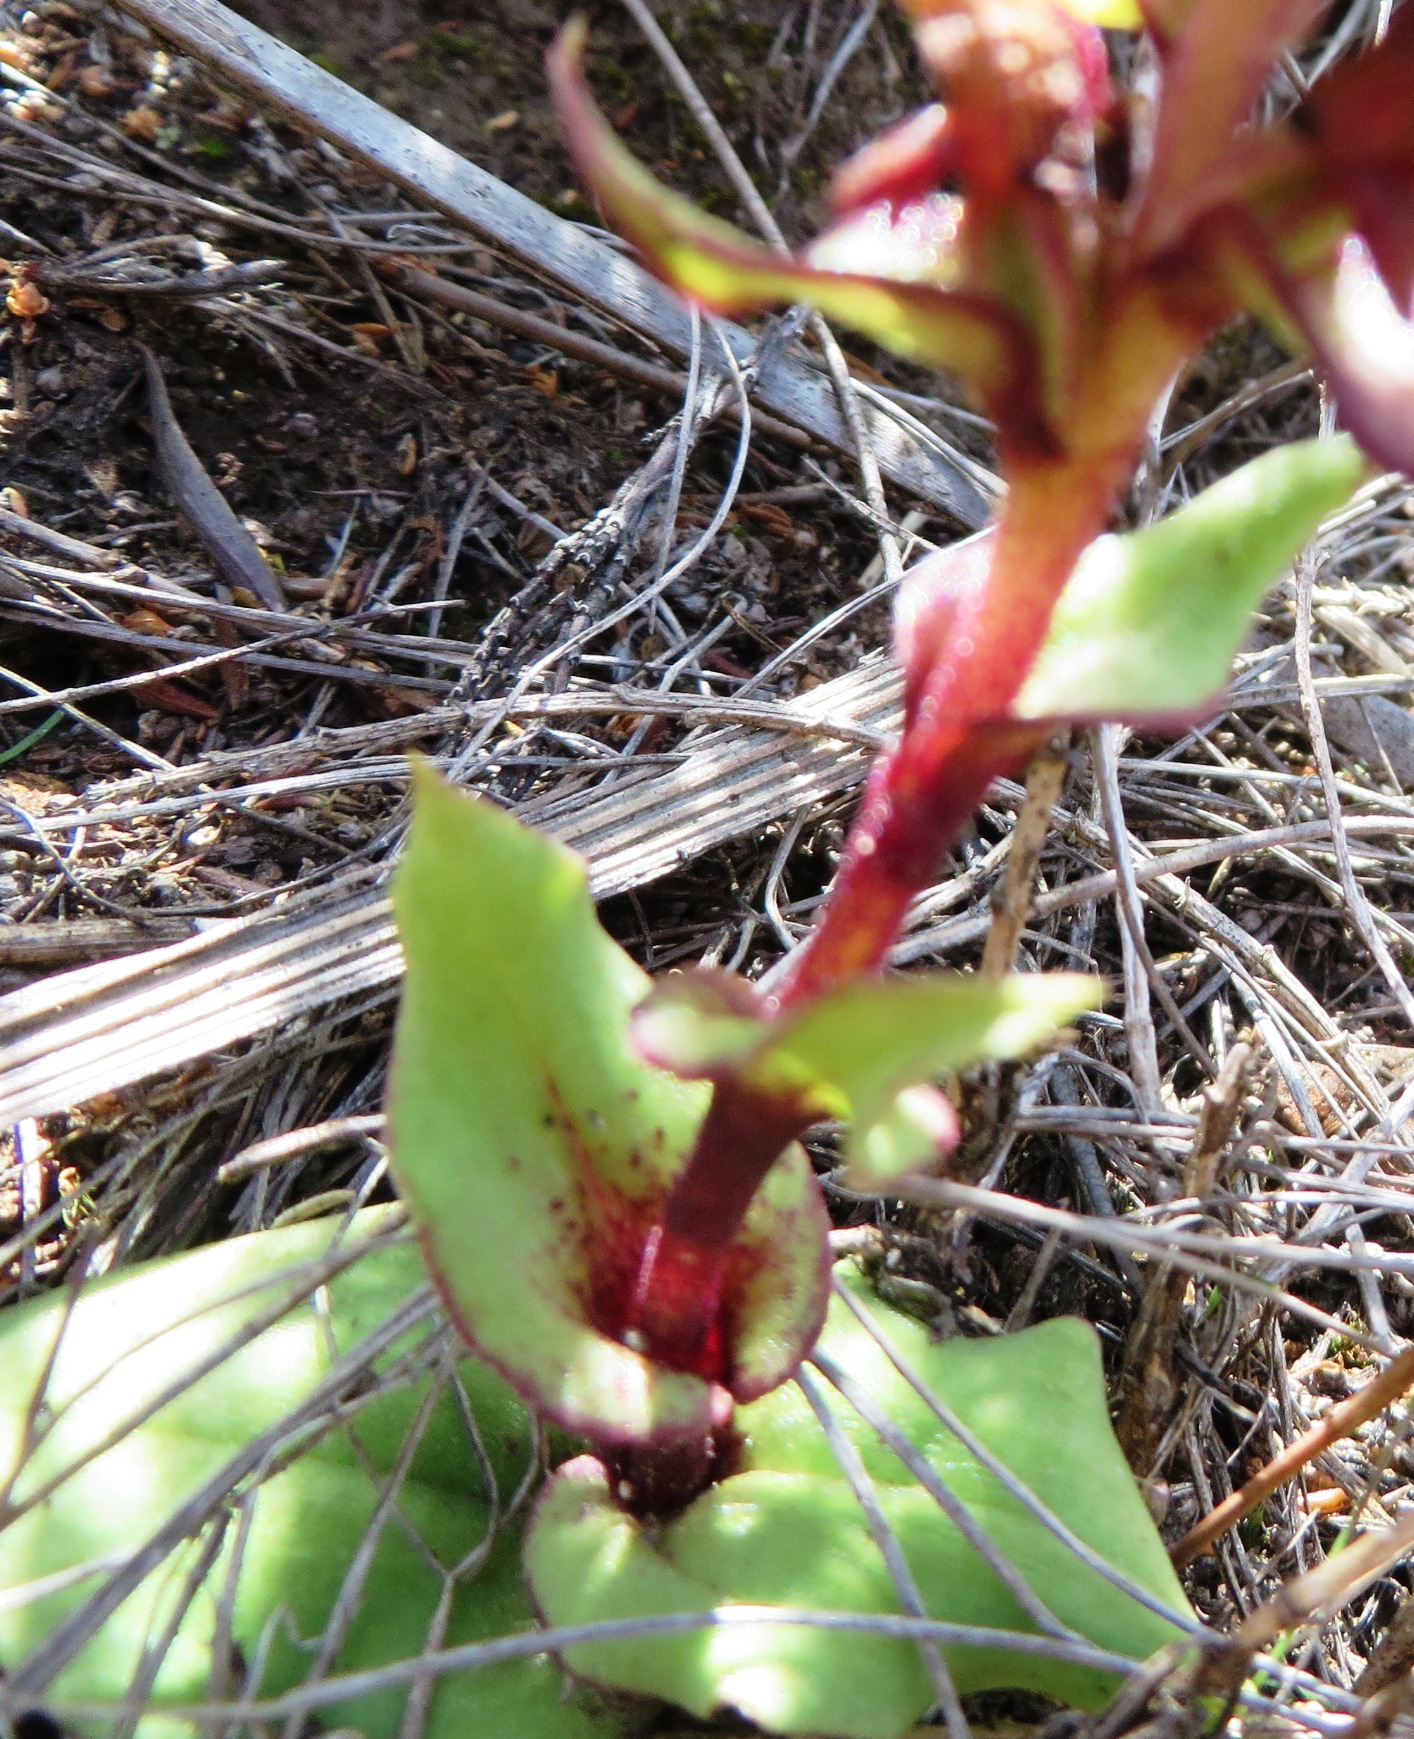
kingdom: Plantae
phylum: Tracheophyta
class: Liliopsida
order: Asparagales
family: Orchidaceae
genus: Satyrium
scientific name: Satyrium bracteatum
